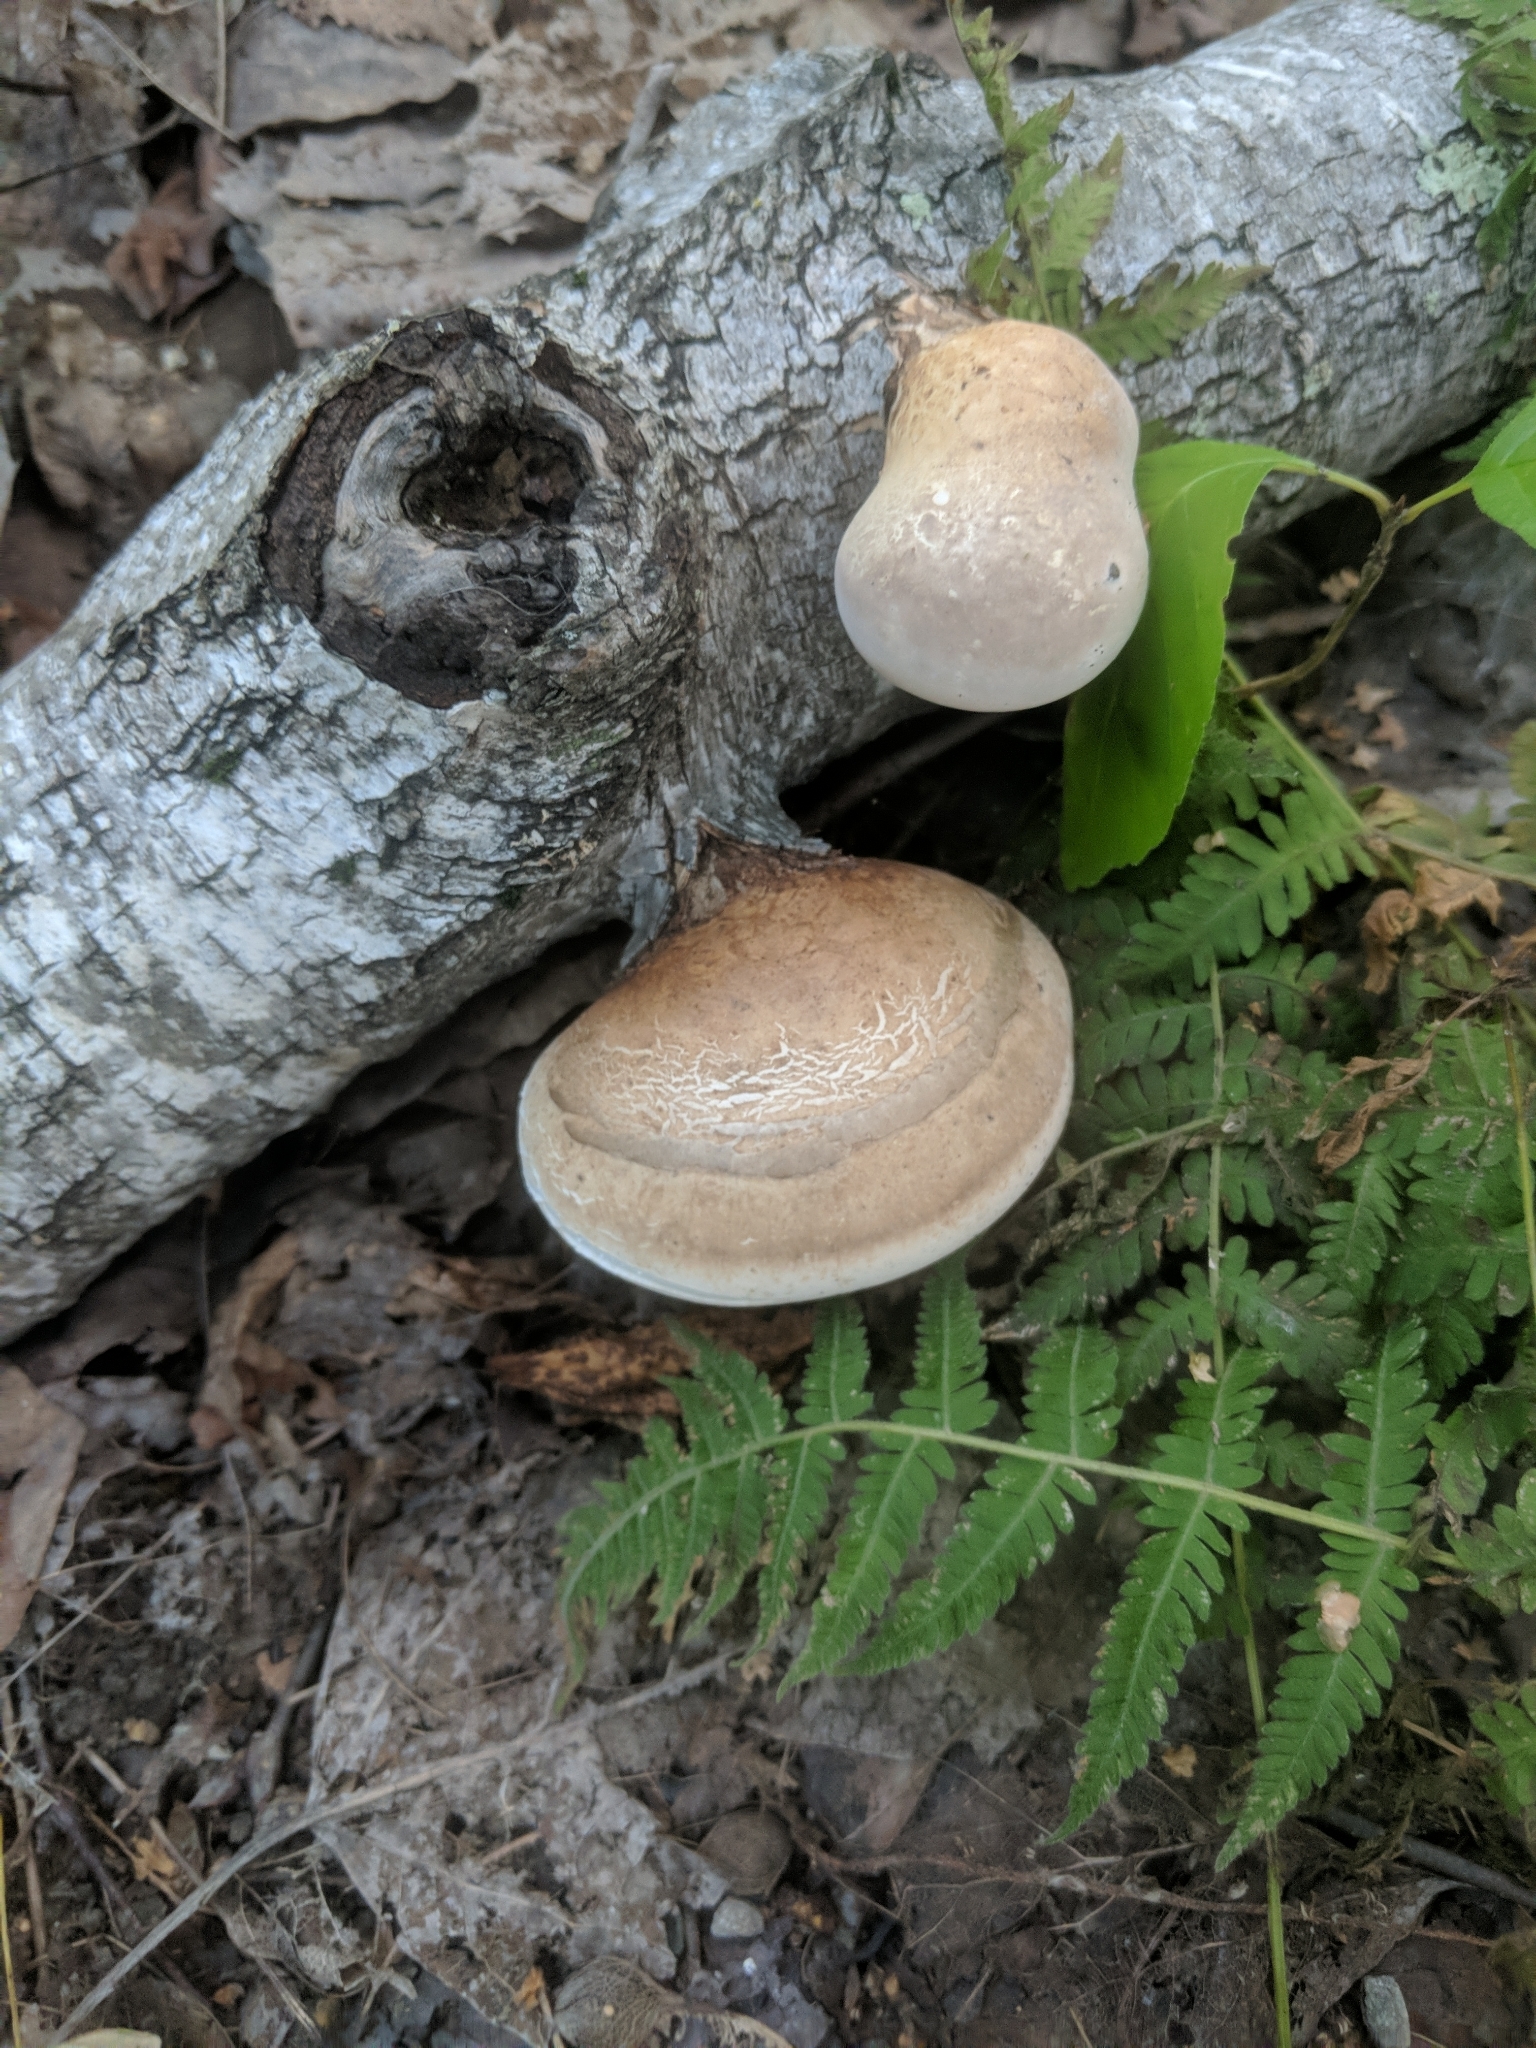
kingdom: Fungi
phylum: Basidiomycota
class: Agaricomycetes
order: Polyporales
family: Fomitopsidaceae
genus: Fomitopsis
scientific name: Fomitopsis betulina
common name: Birch polypore
